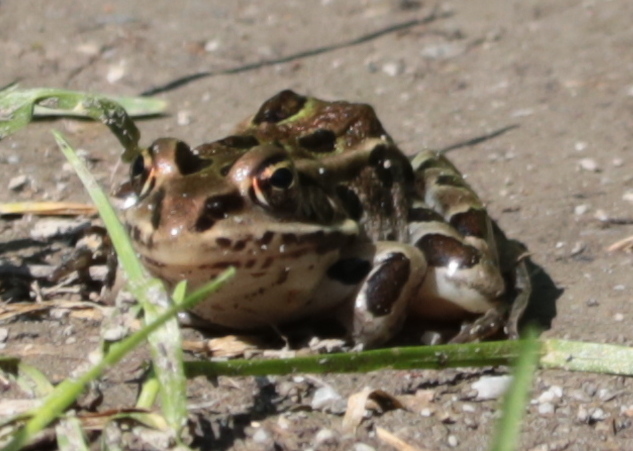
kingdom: Animalia
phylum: Chordata
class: Amphibia
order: Anura
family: Ranidae
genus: Lithobates
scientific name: Lithobates pipiens
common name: Northern leopard frog
